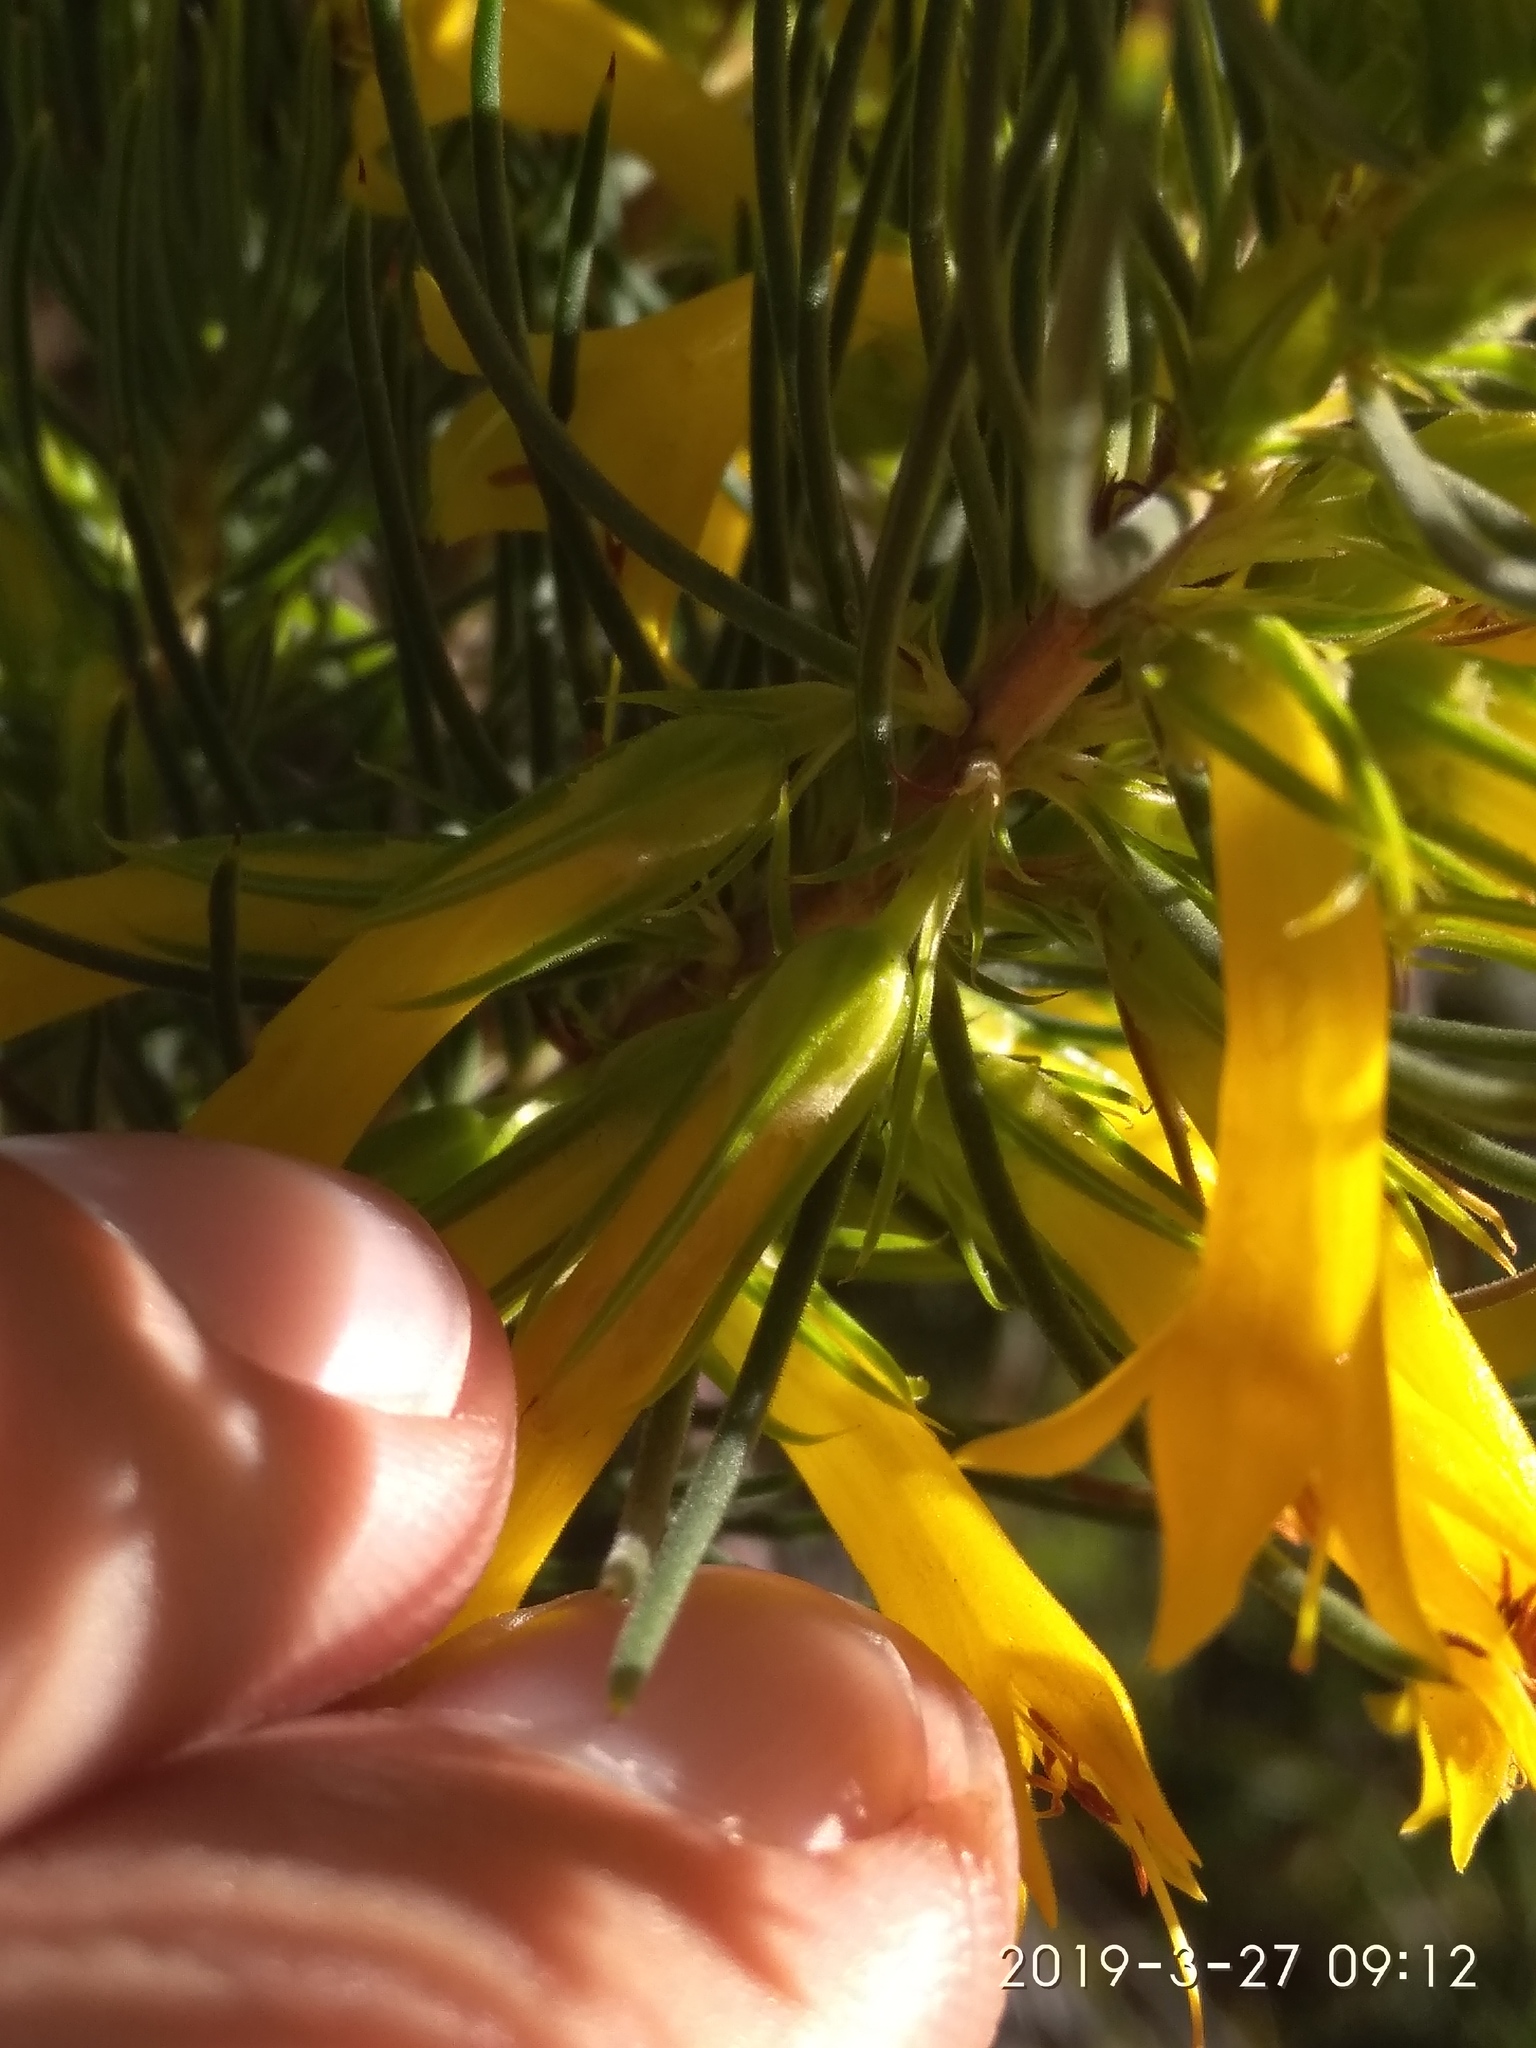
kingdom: Plantae
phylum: Tracheophyta
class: Magnoliopsida
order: Ericales
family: Ericaceae
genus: Erica
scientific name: Erica grandiflora
